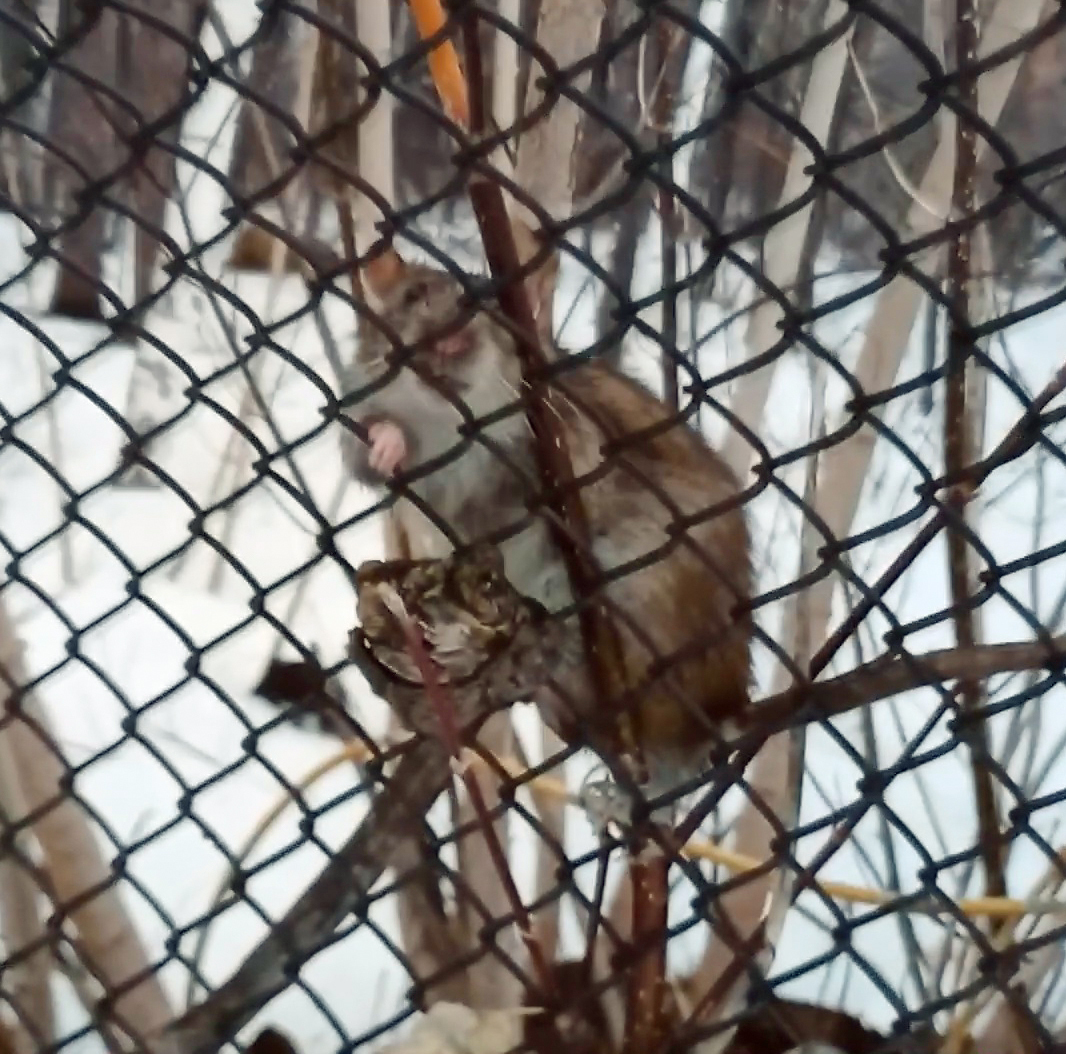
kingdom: Animalia
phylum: Chordata
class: Mammalia
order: Rodentia
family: Muridae
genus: Rattus
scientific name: Rattus norvegicus
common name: Brown rat
